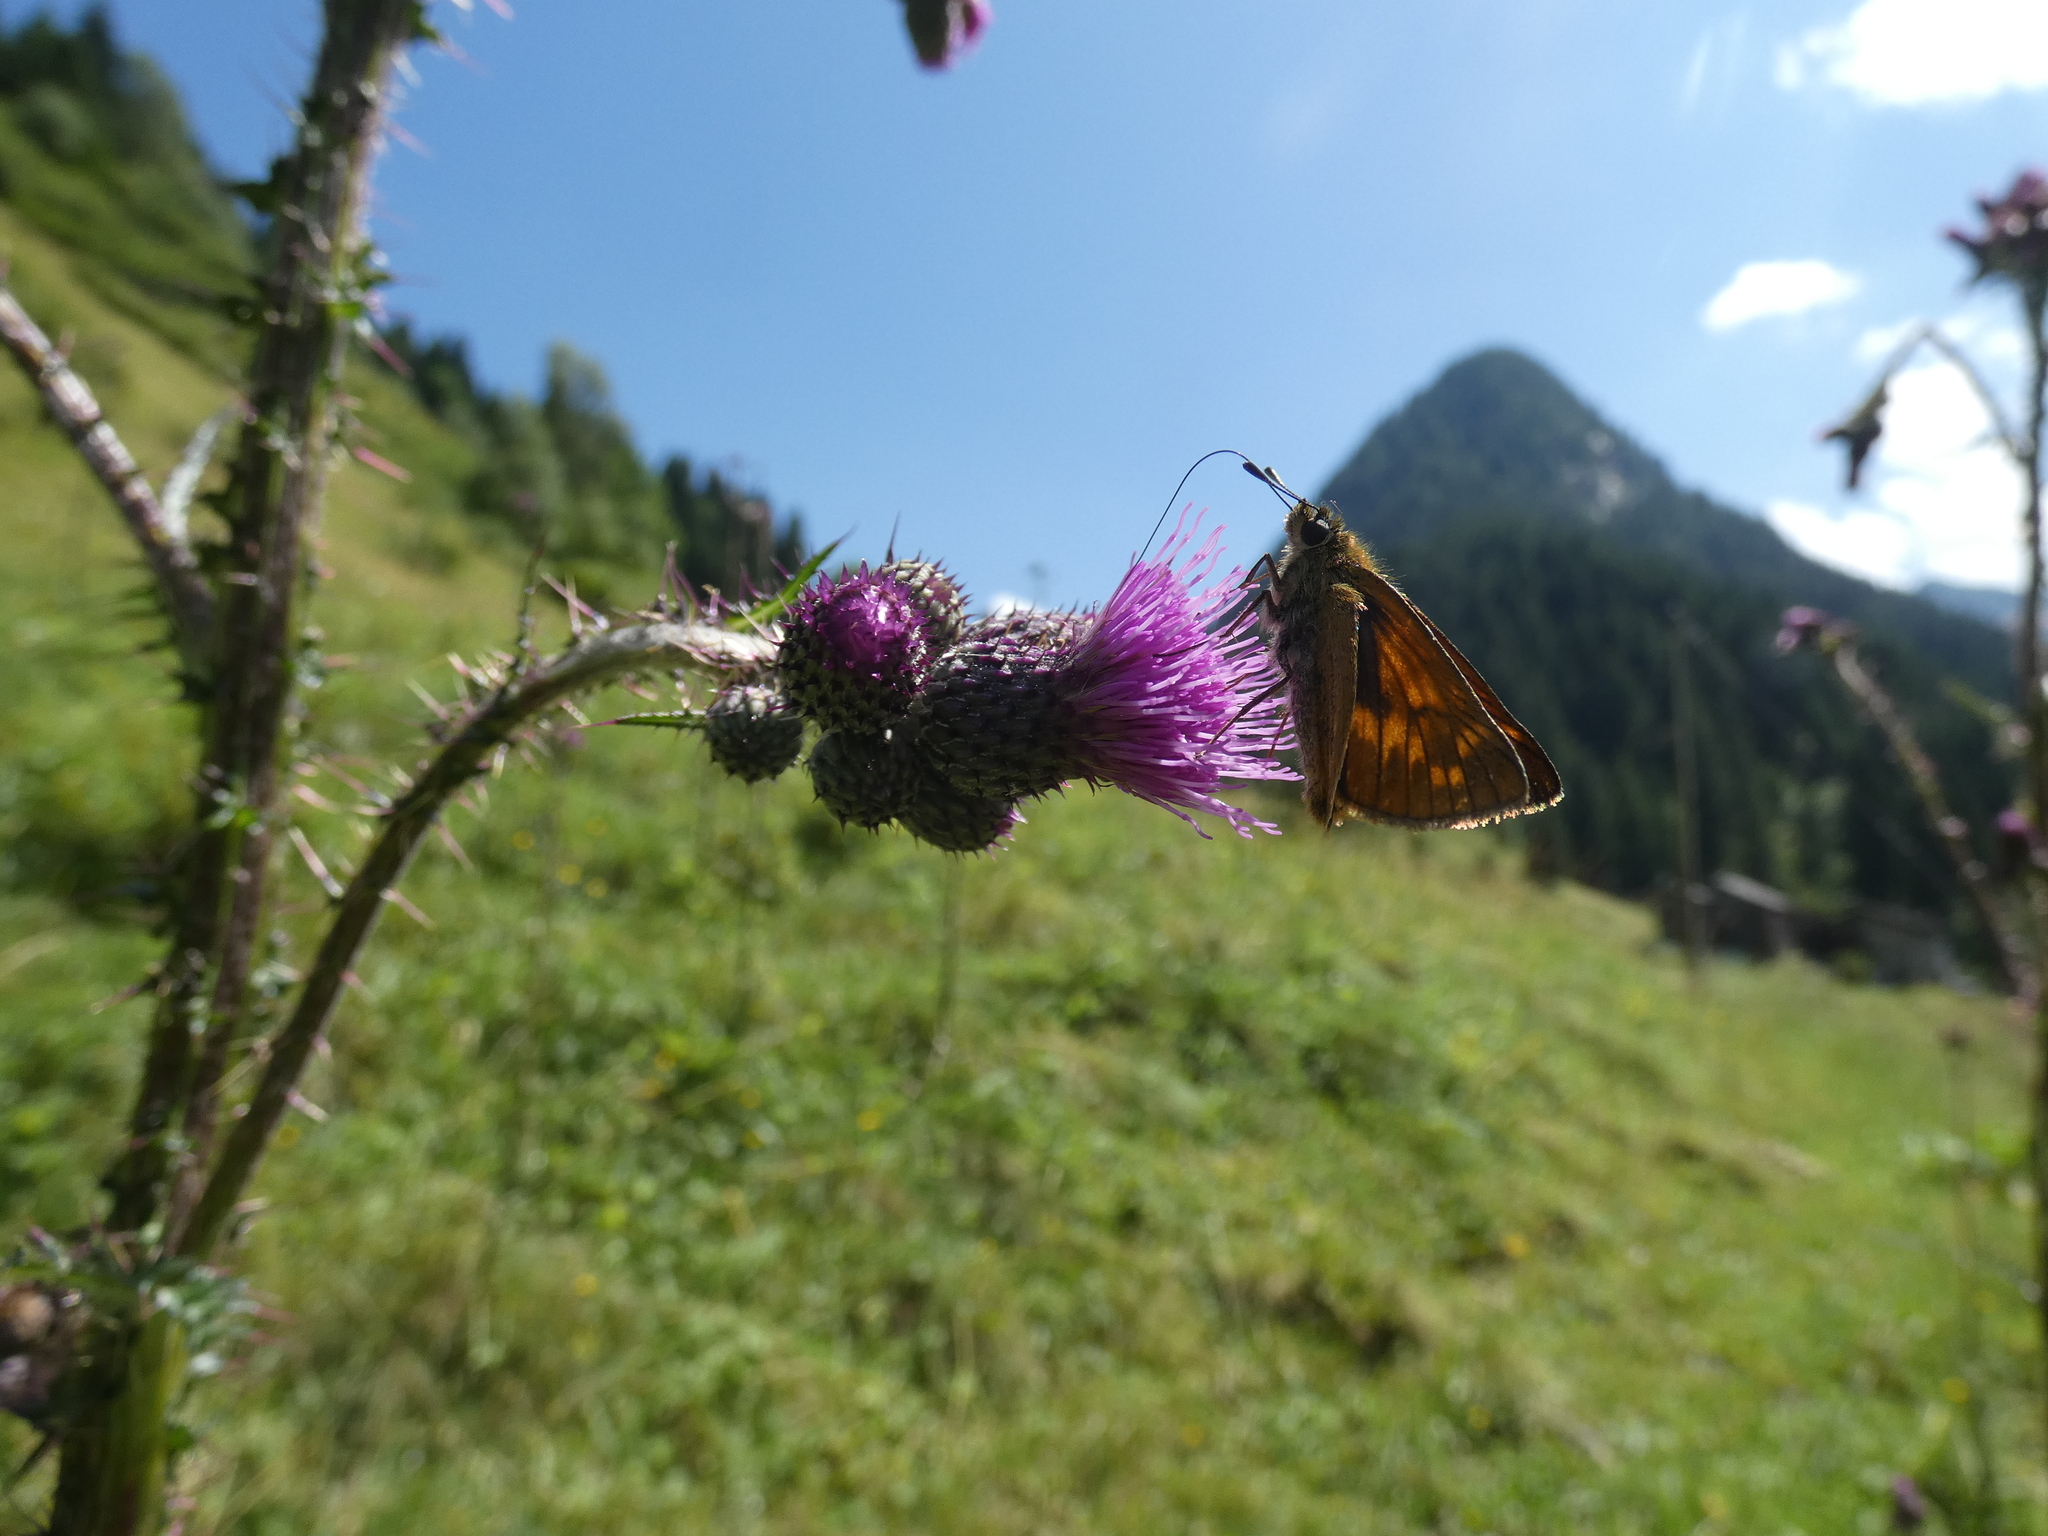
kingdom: Animalia
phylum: Arthropoda
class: Insecta
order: Lepidoptera
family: Hesperiidae
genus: Ochlodes
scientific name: Ochlodes venata
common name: Large skipper
